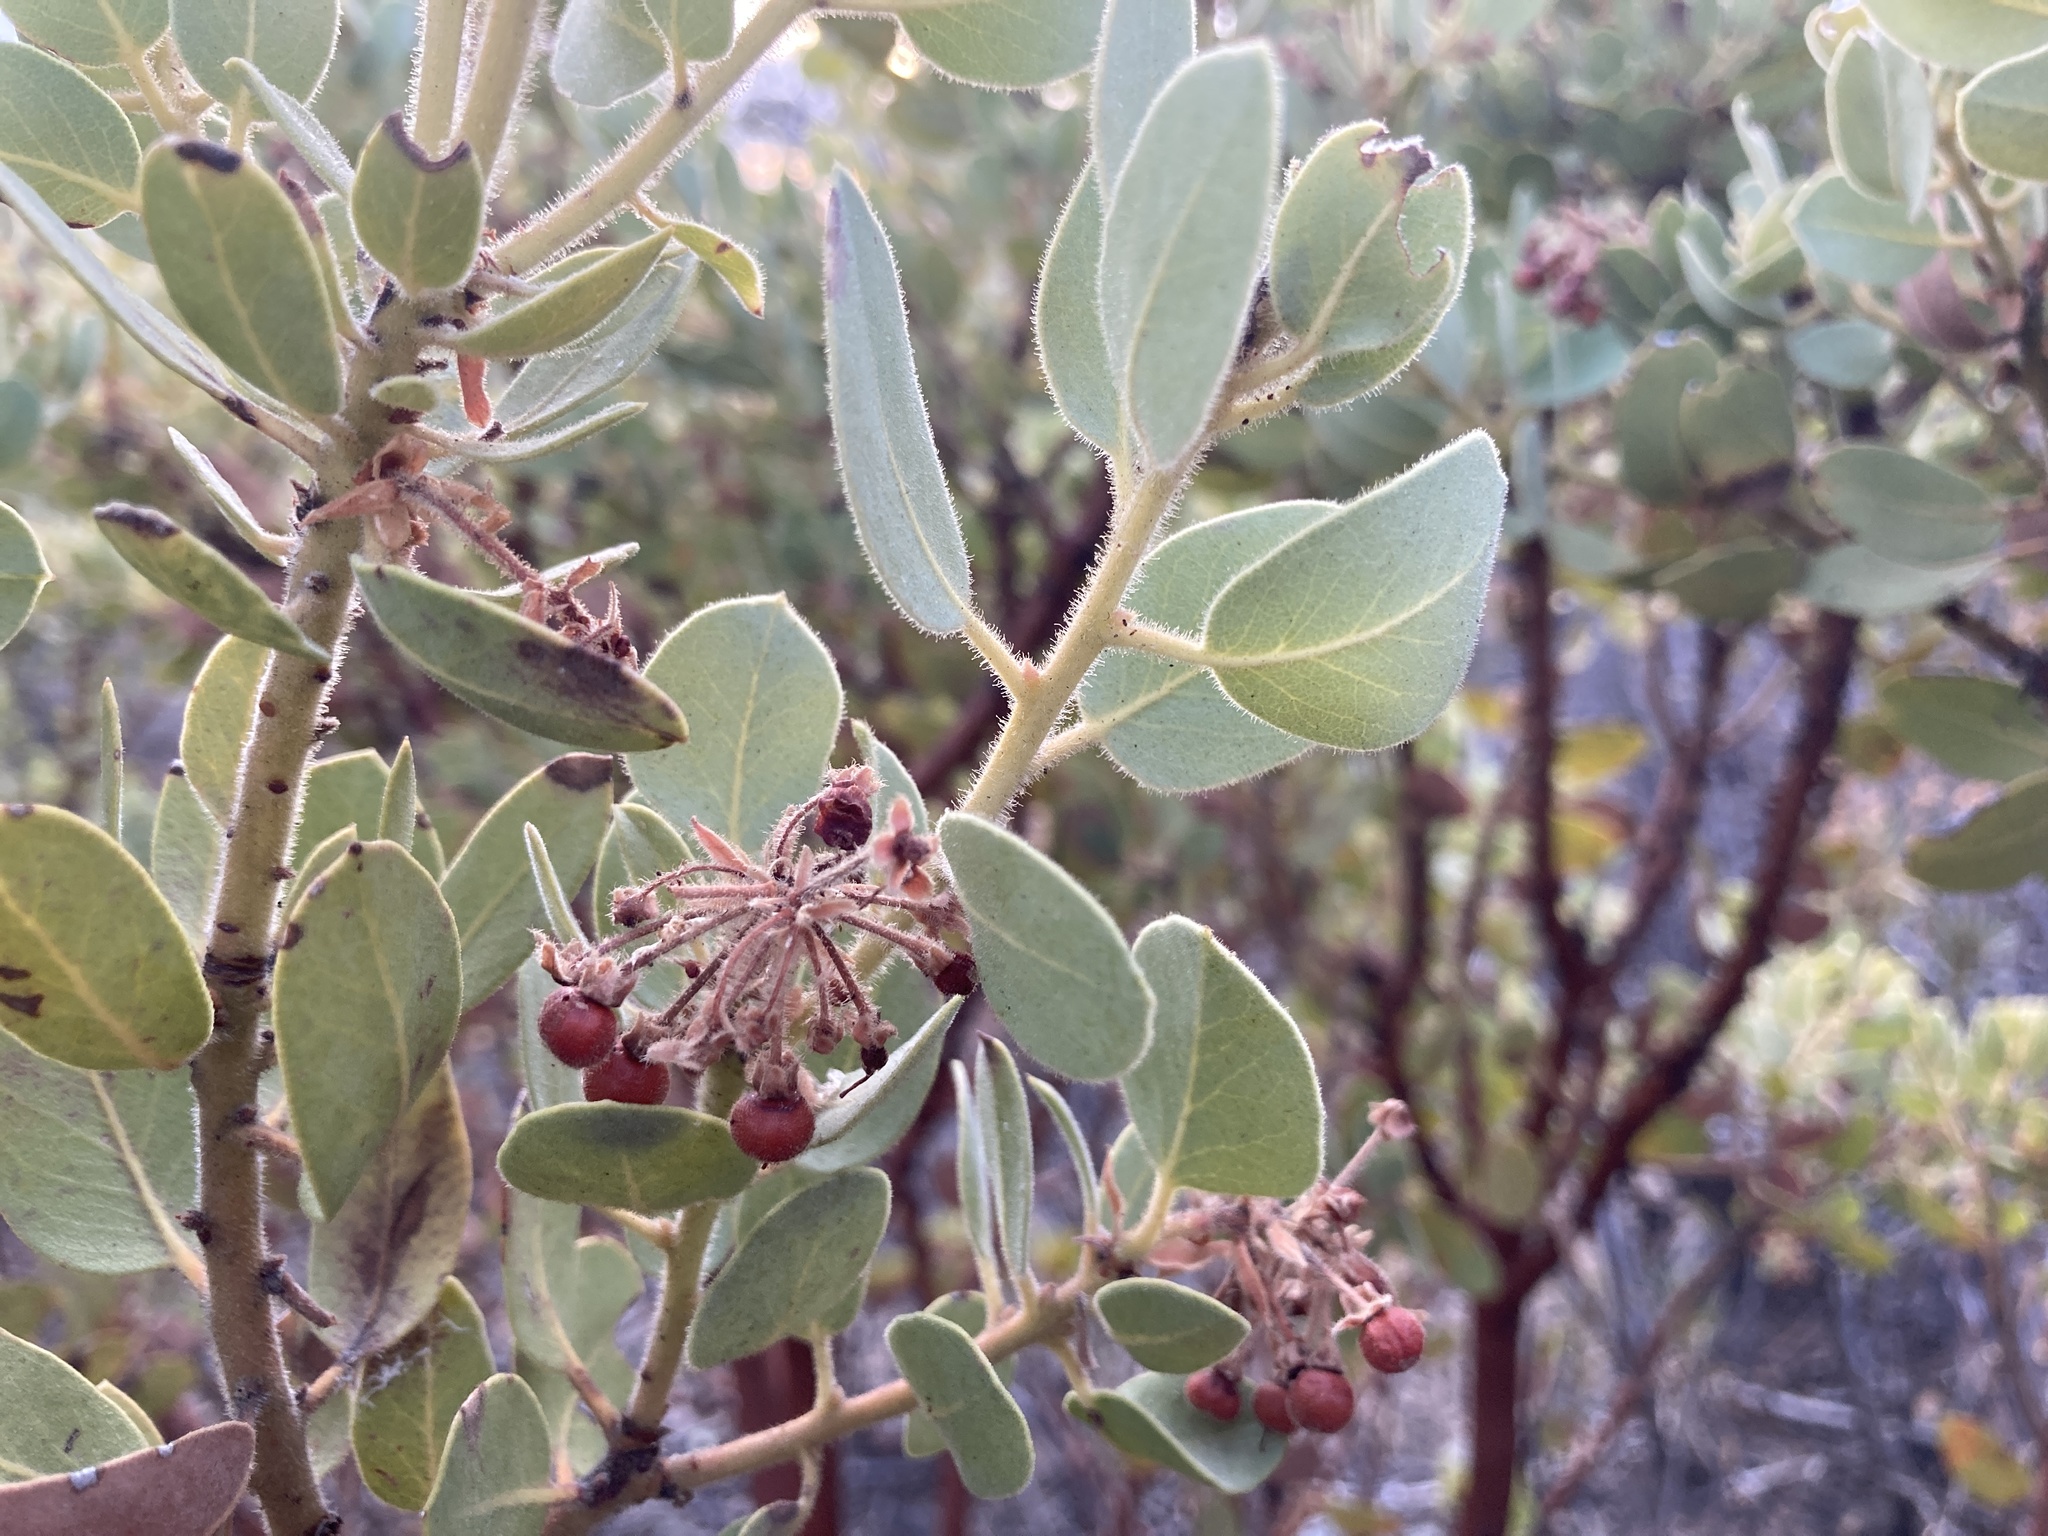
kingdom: Plantae
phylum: Tracheophyta
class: Magnoliopsida
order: Ericales
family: Ericaceae
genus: Arctostaphylos
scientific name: Arctostaphylos pringlei
